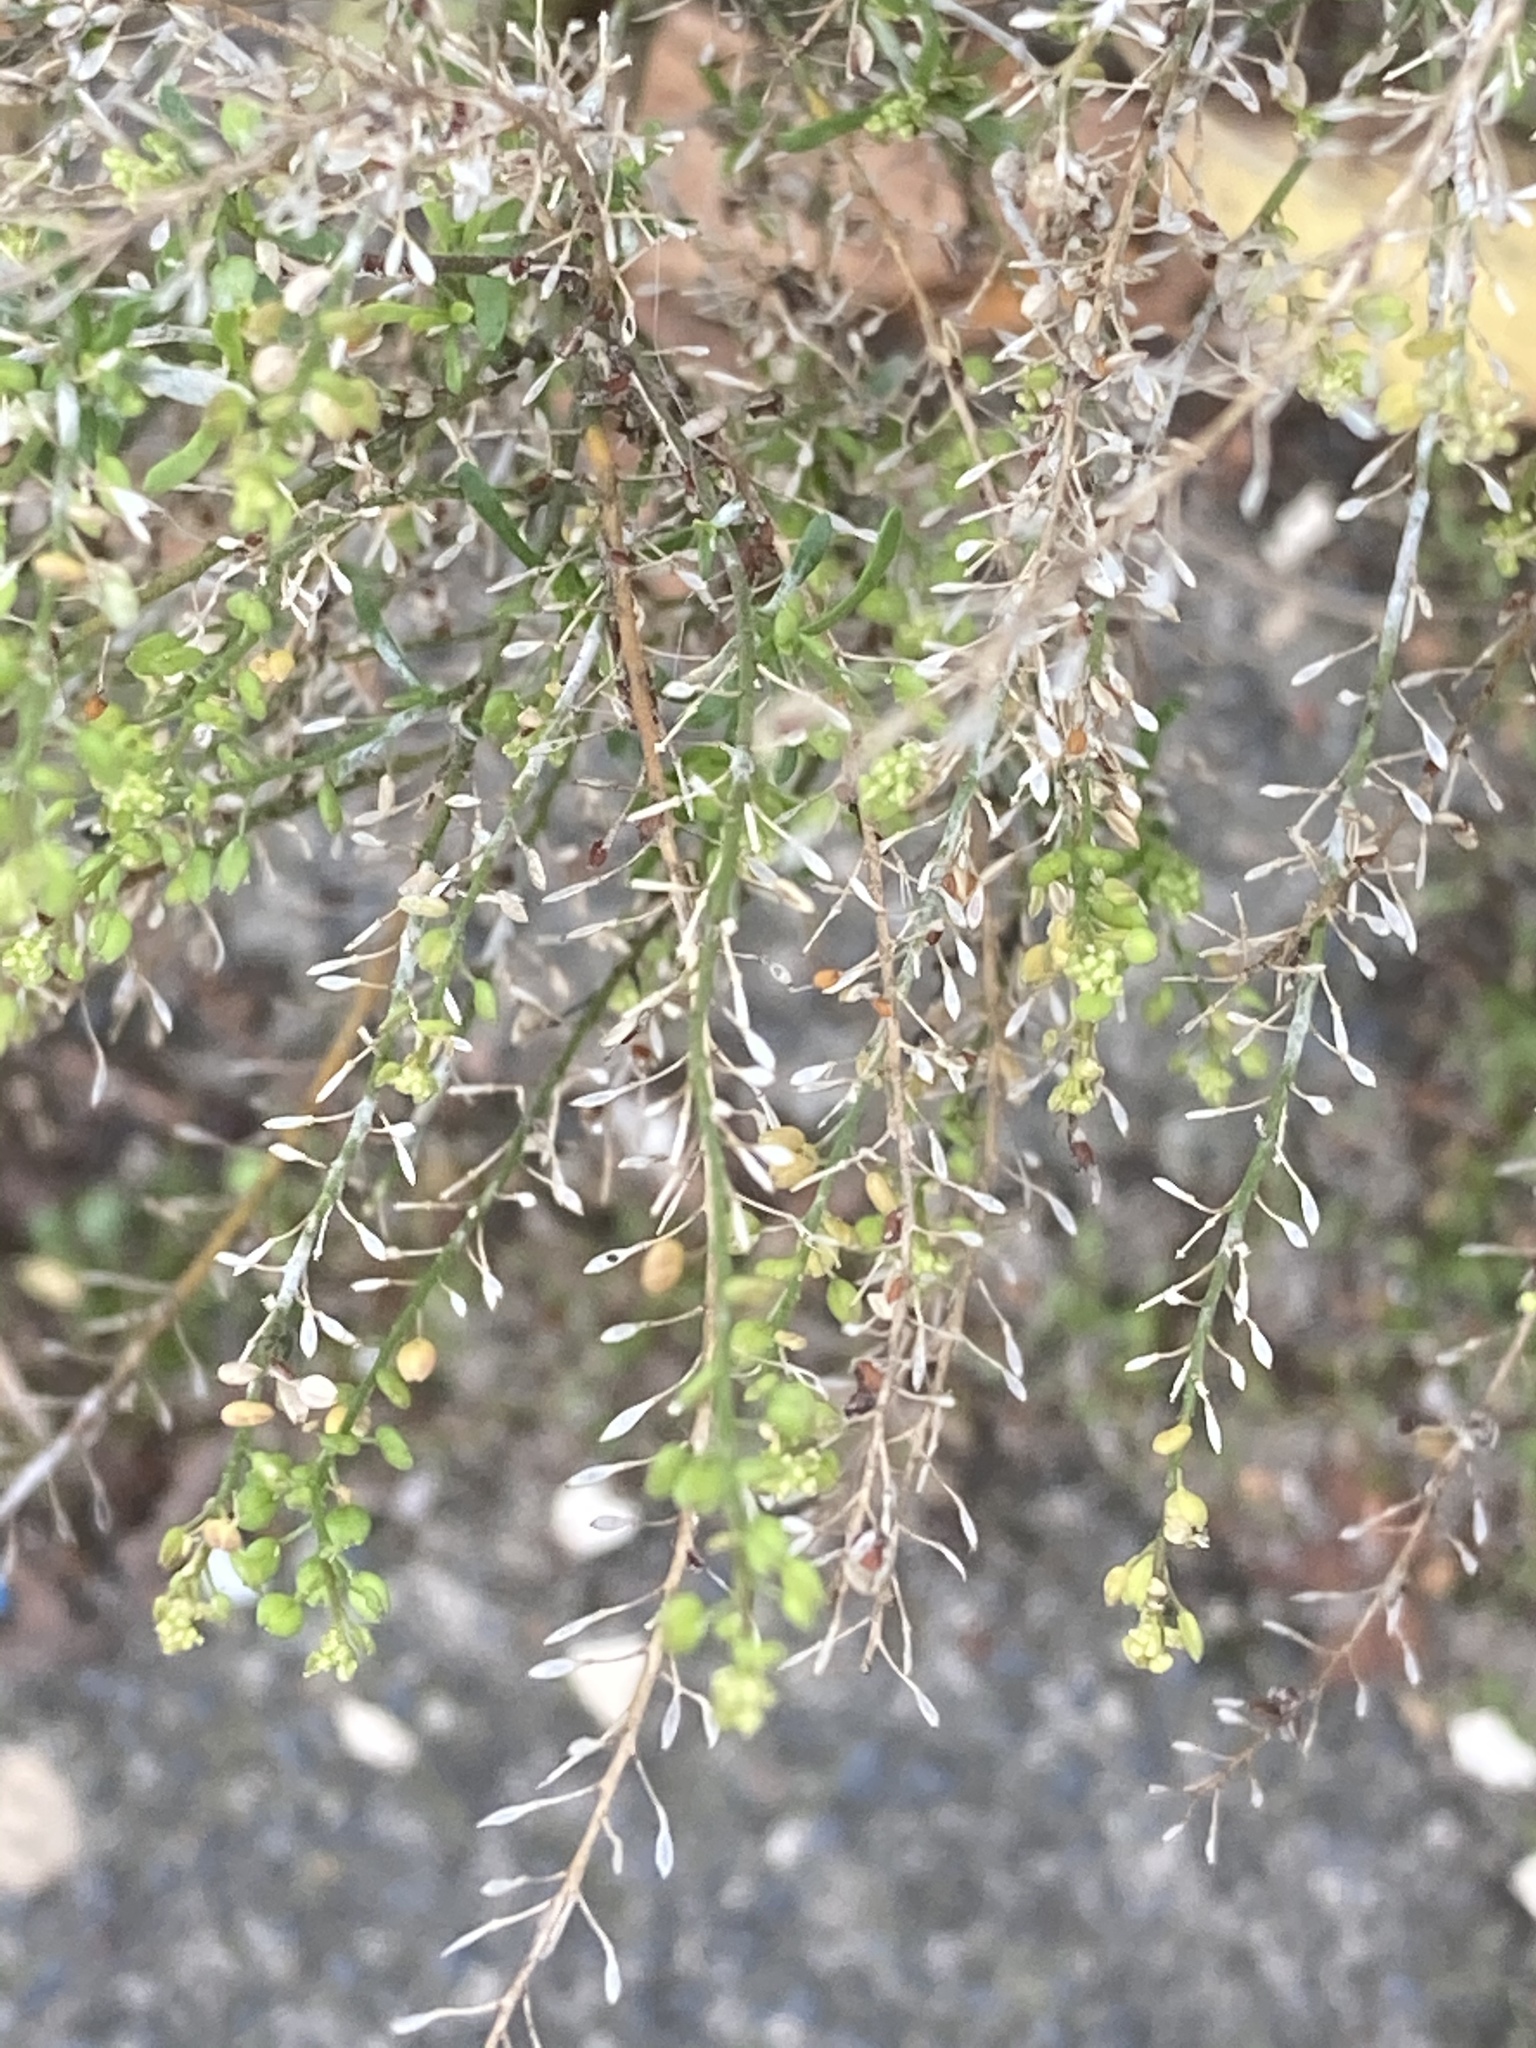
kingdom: Plantae
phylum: Tracheophyta
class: Magnoliopsida
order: Brassicales
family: Brassicaceae
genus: Lepidium
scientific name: Lepidium ruderale
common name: Narrow-leaved pepperwort
